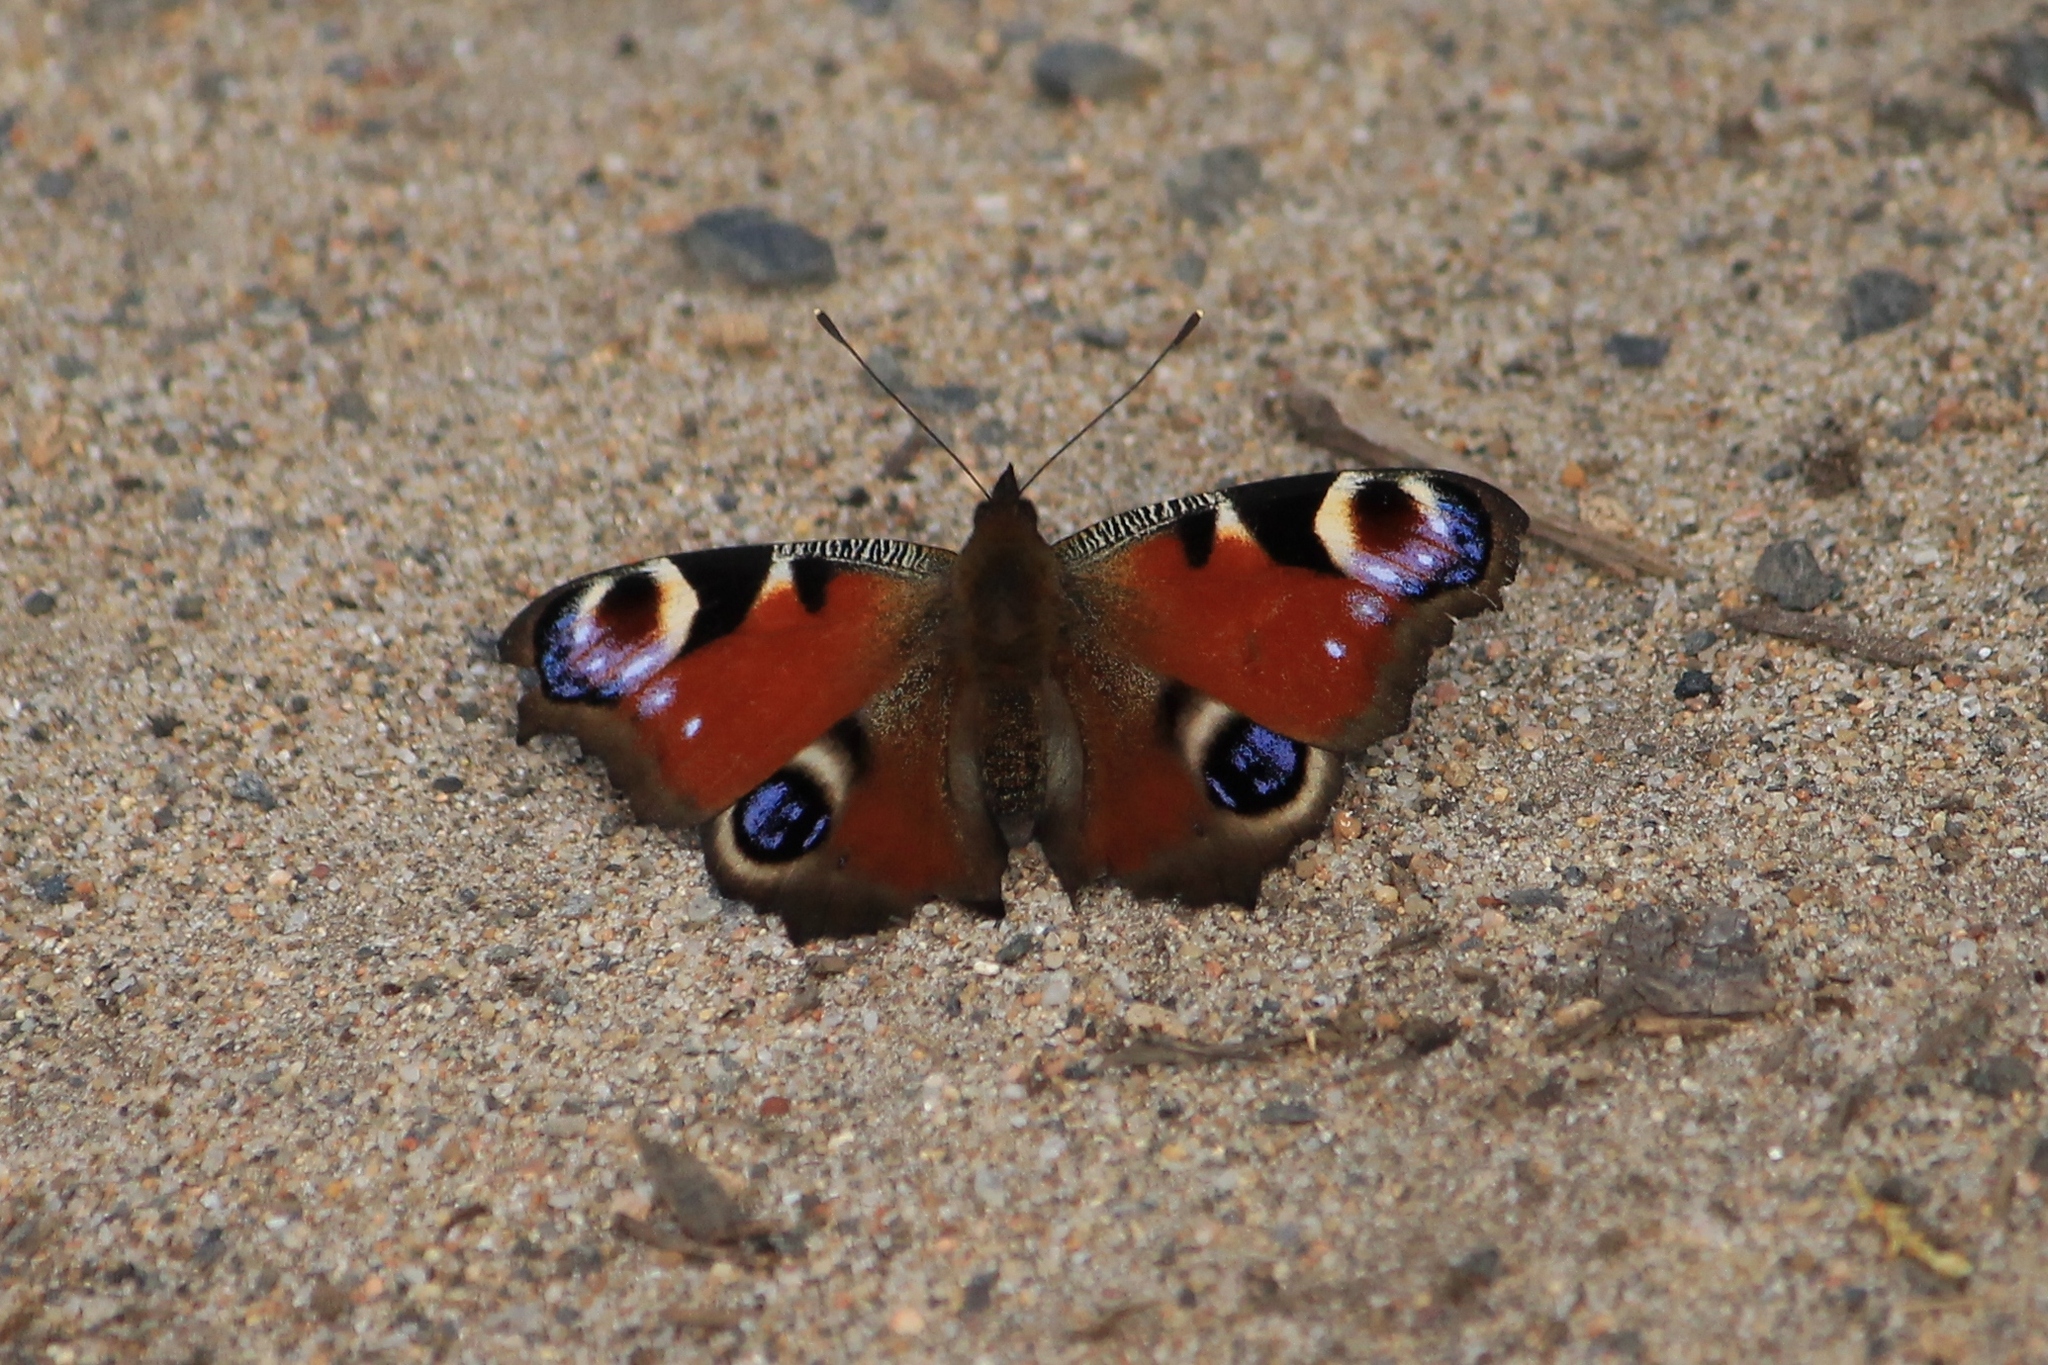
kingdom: Animalia
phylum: Arthropoda
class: Insecta
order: Lepidoptera
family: Nymphalidae
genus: Aglais
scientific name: Aglais io
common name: Peacock
